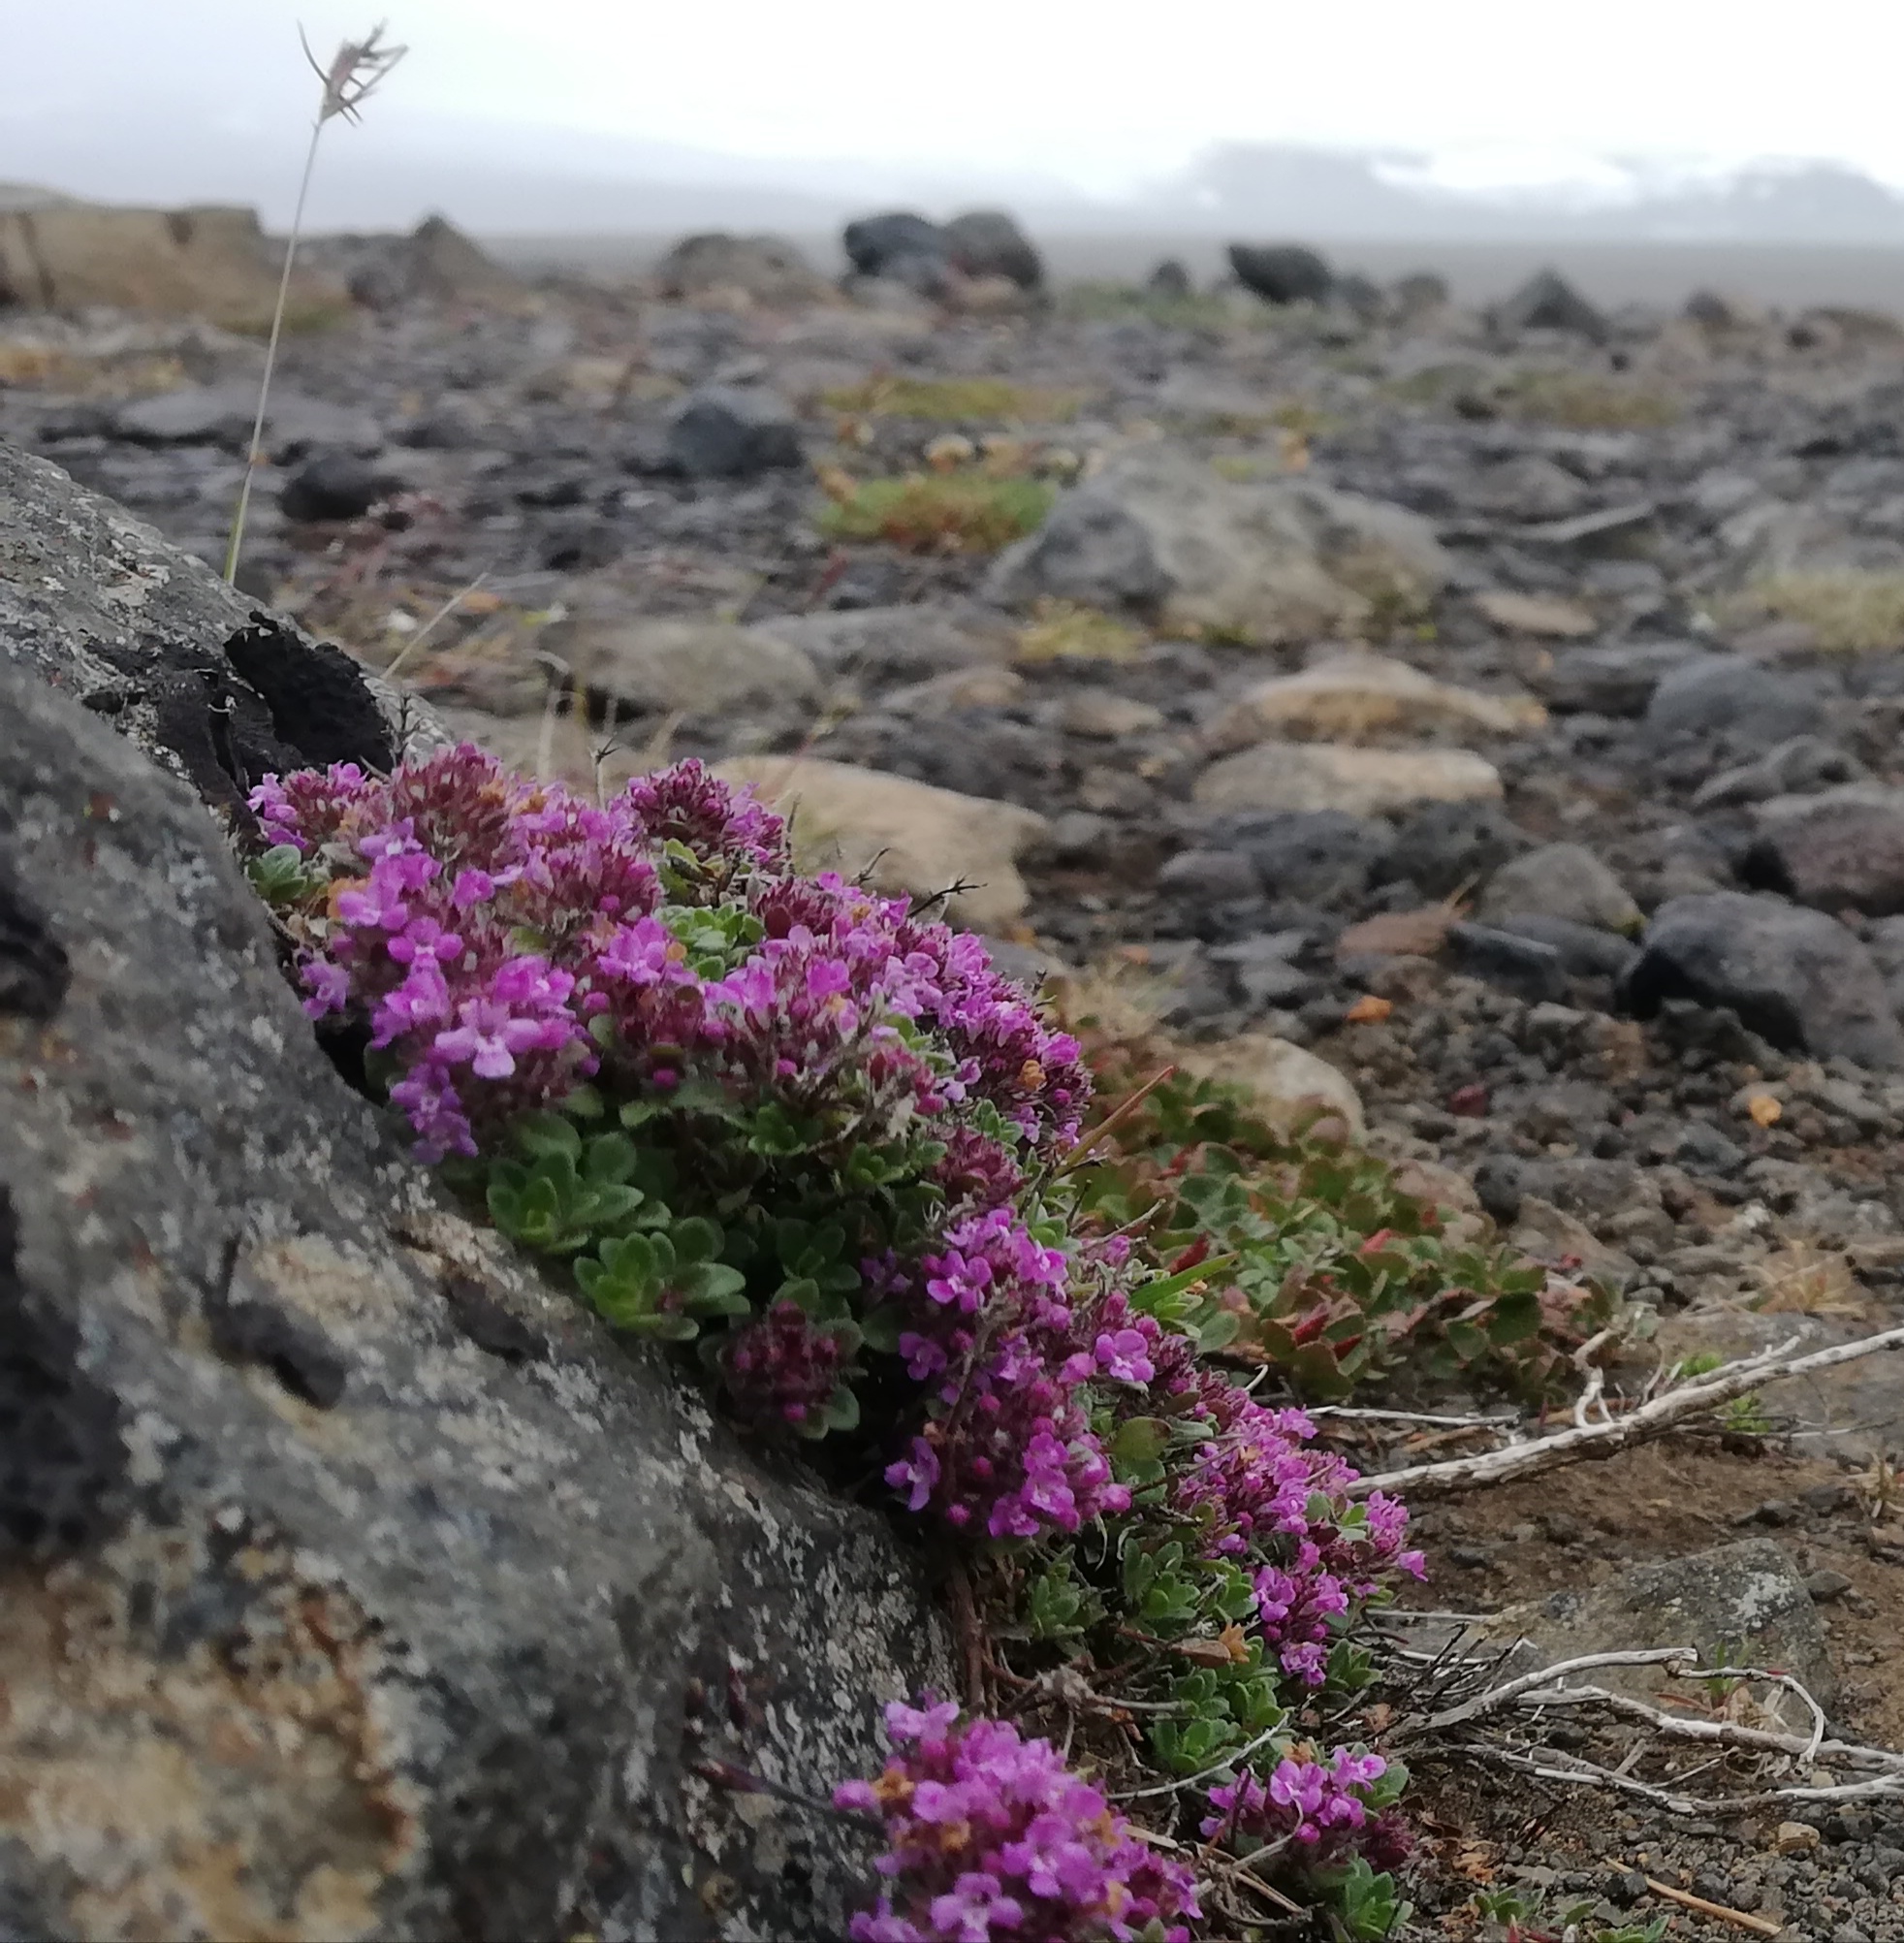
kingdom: Plantae
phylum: Tracheophyta
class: Magnoliopsida
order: Lamiales
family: Lamiaceae
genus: Thymus
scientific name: Thymus praecox
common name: Wild thyme
